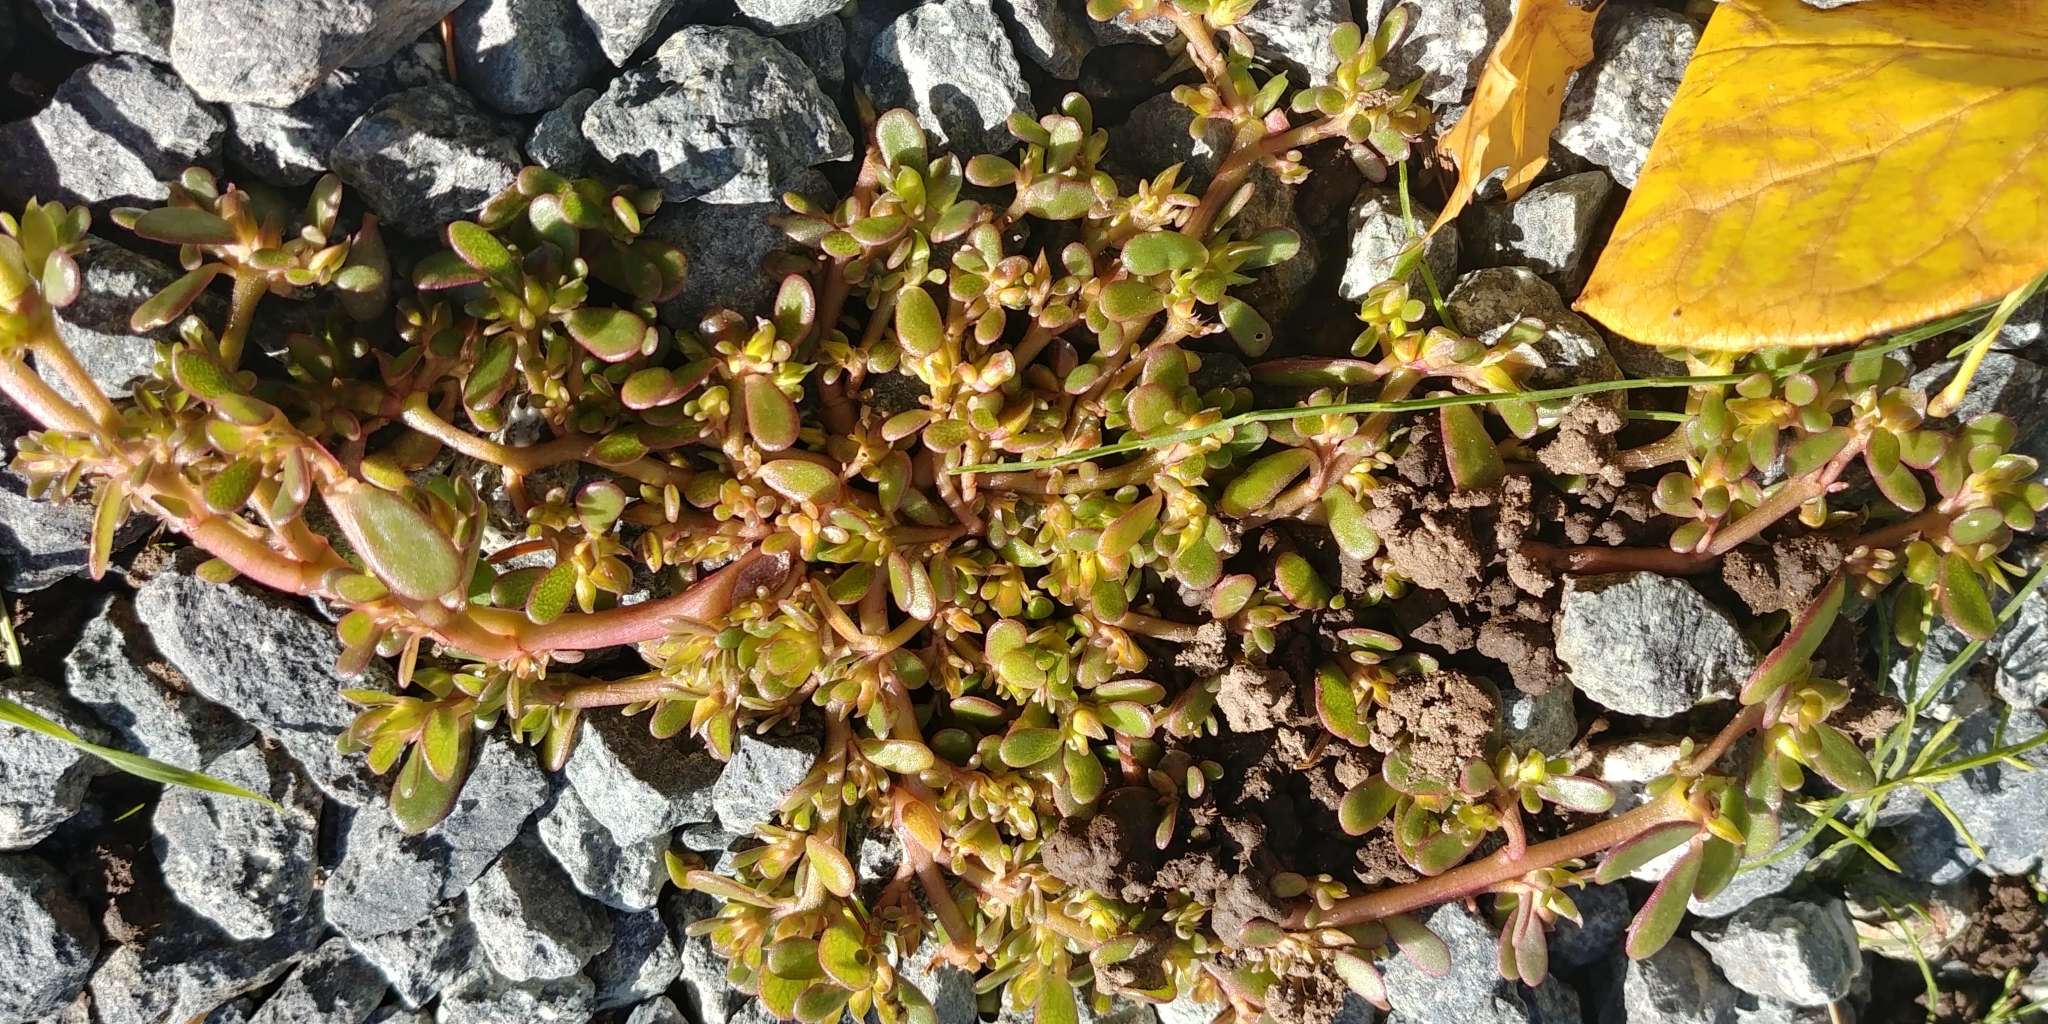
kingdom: Plantae
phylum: Tracheophyta
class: Magnoliopsida
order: Caryophyllales
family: Portulacaceae
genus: Portulaca
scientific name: Portulaca oleracea
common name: Common purslane
